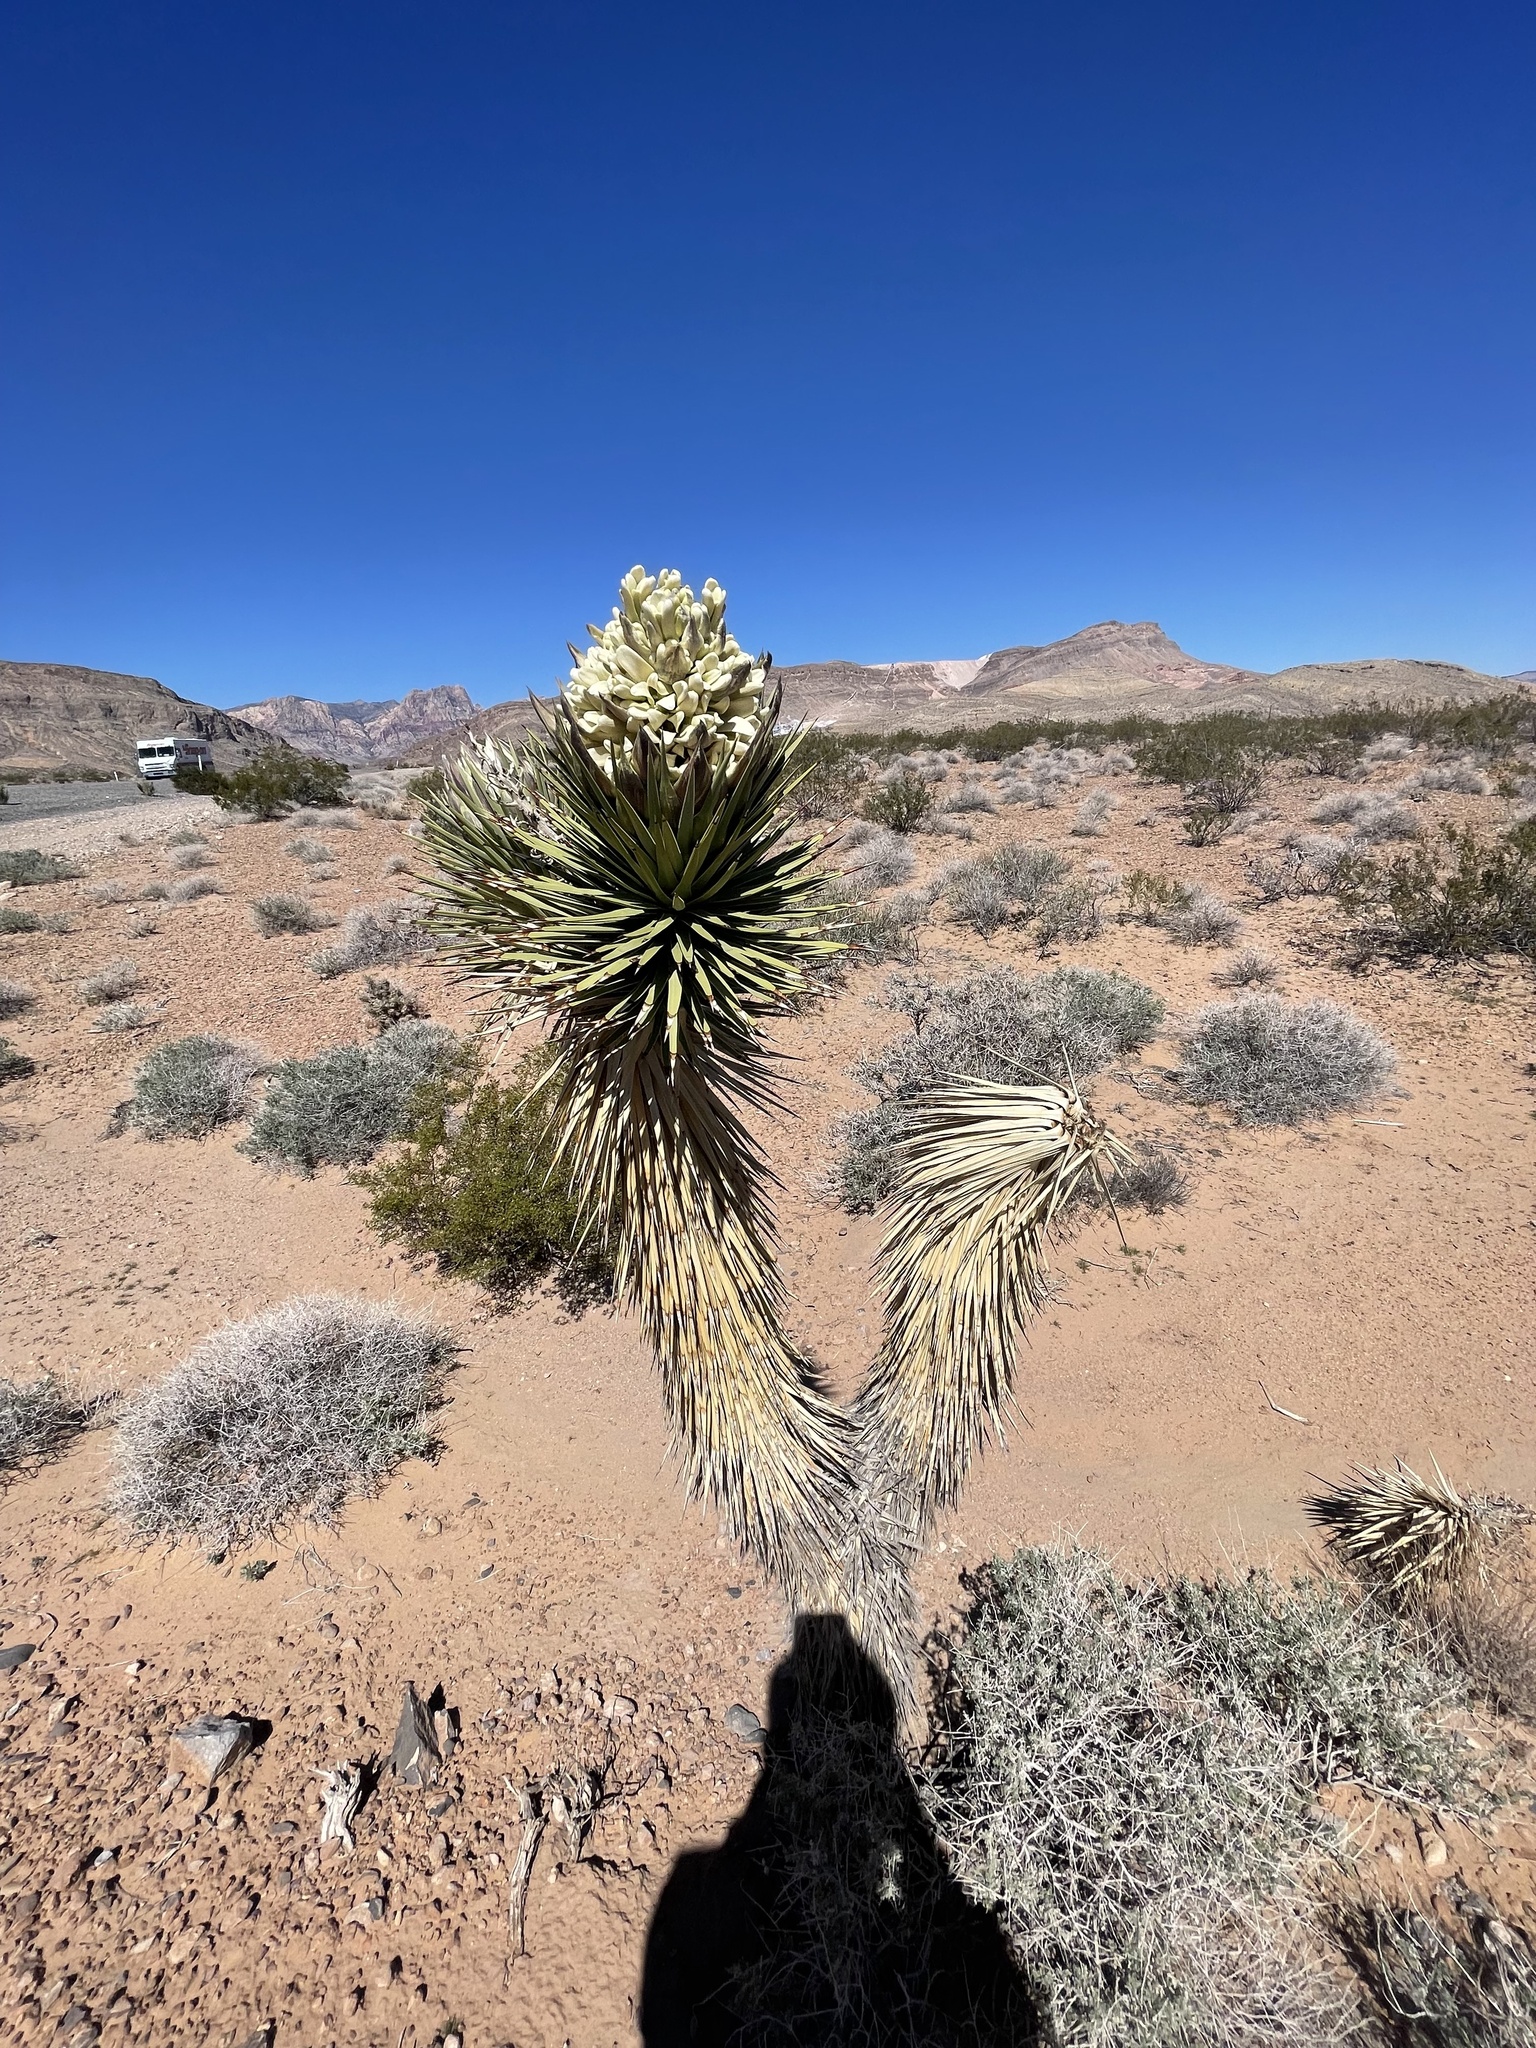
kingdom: Plantae
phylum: Tracheophyta
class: Liliopsida
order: Asparagales
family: Asparagaceae
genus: Yucca
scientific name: Yucca brevifolia
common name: Joshua tree
